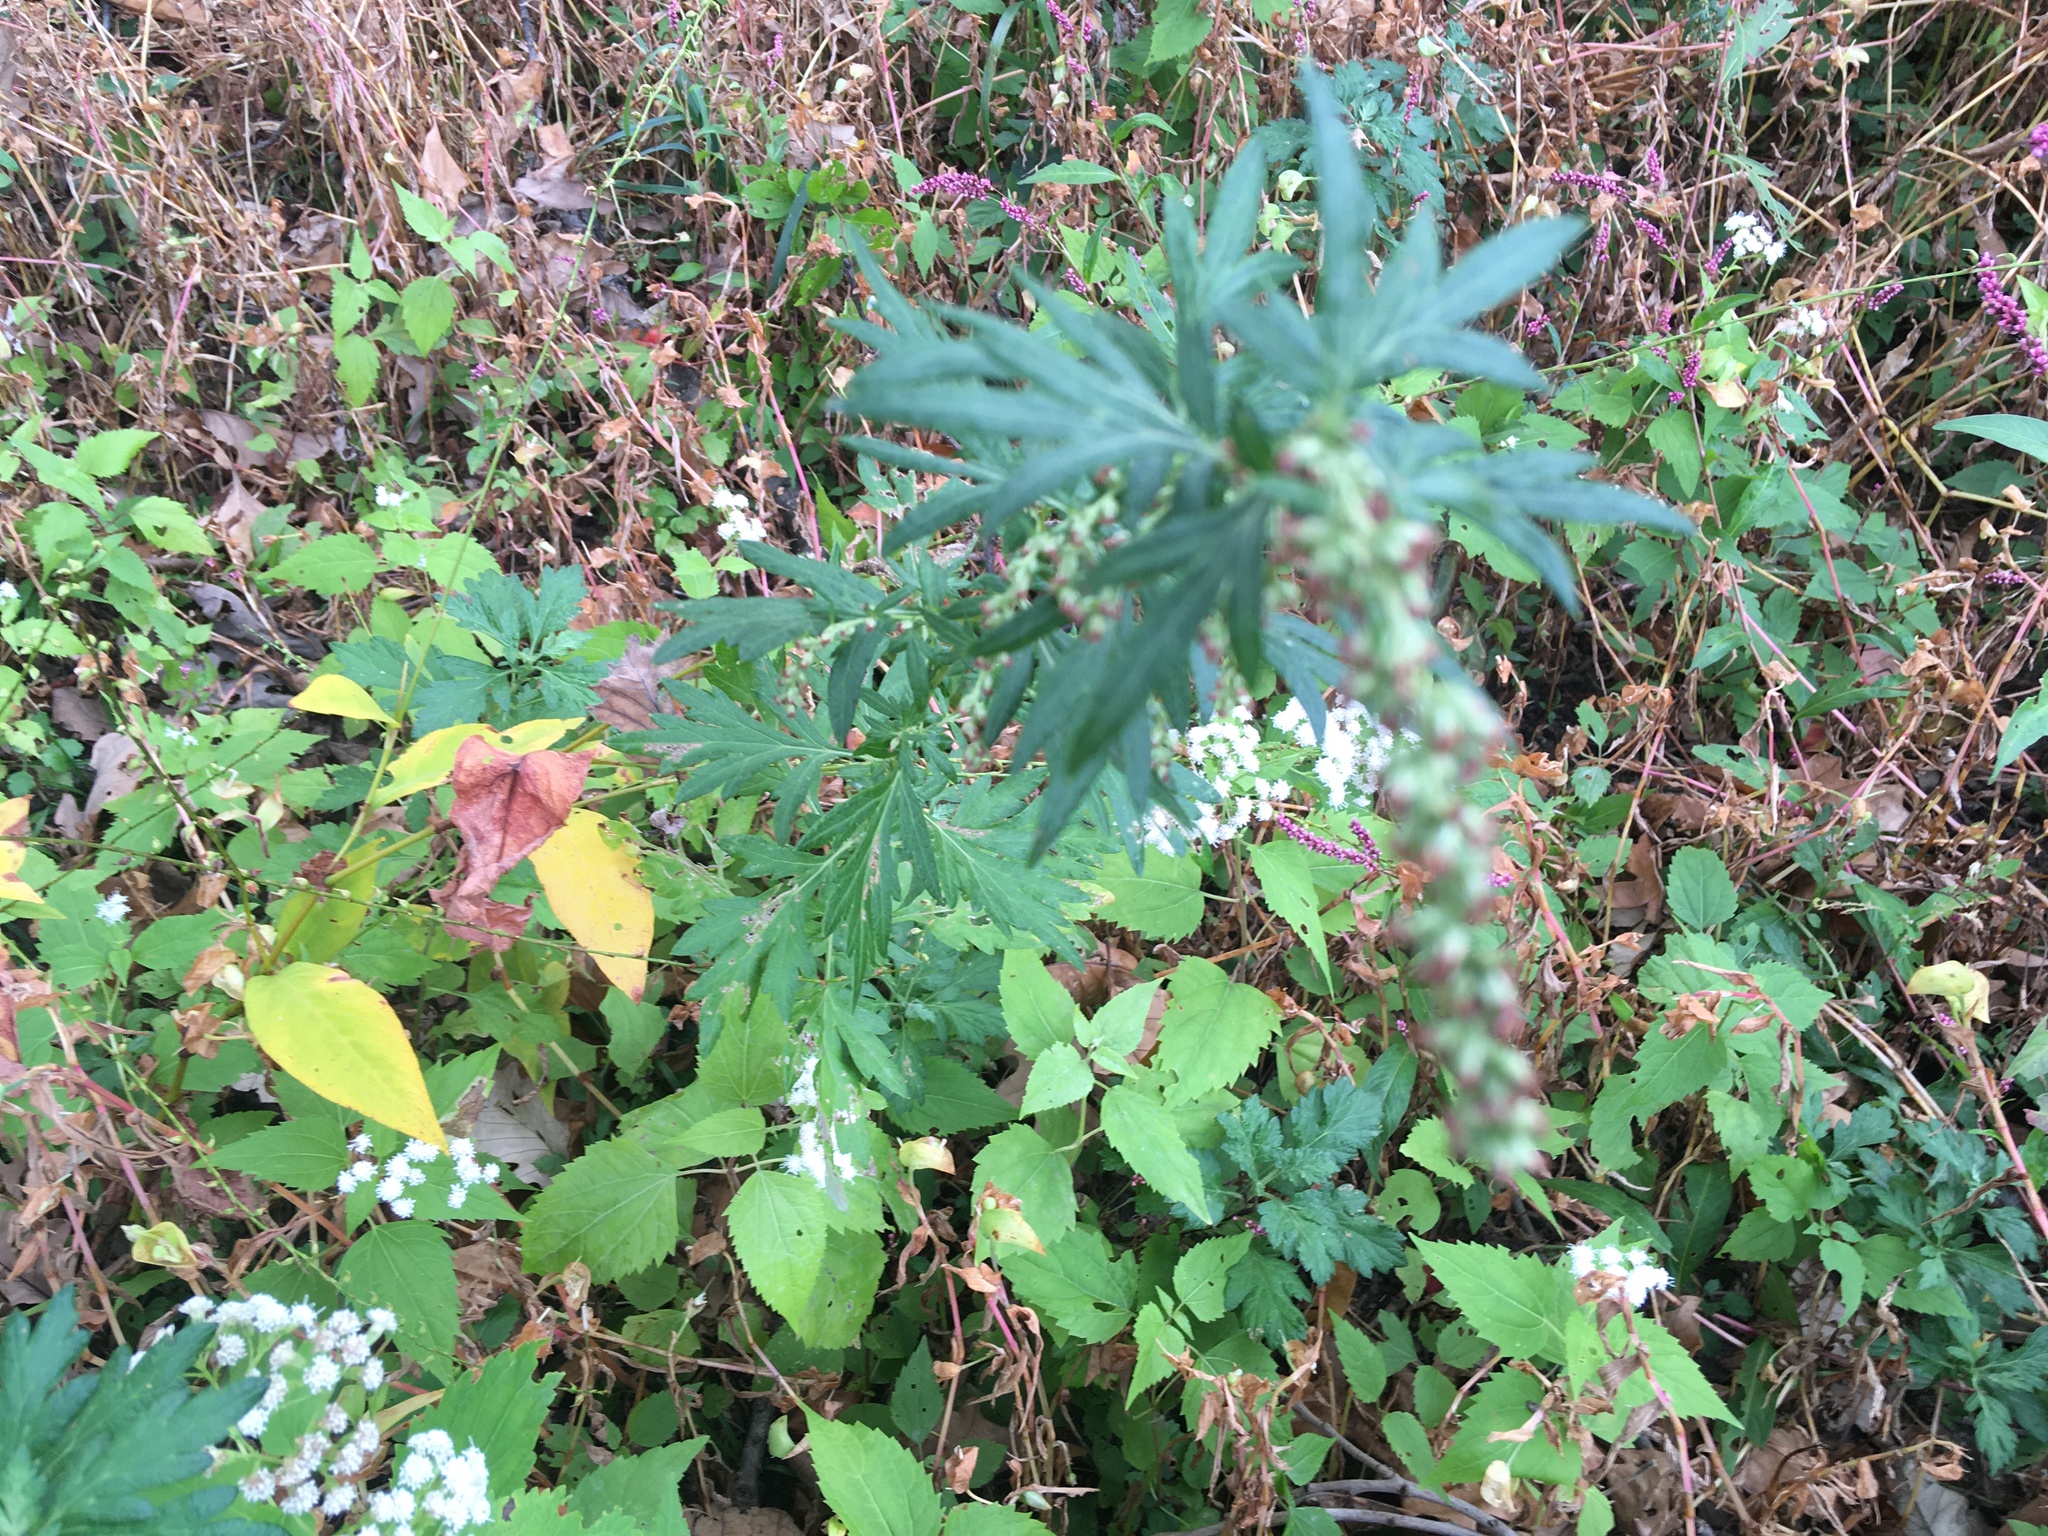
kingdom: Plantae
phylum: Tracheophyta
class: Magnoliopsida
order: Asterales
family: Asteraceae
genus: Artemisia
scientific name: Artemisia vulgaris
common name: Mugwort
